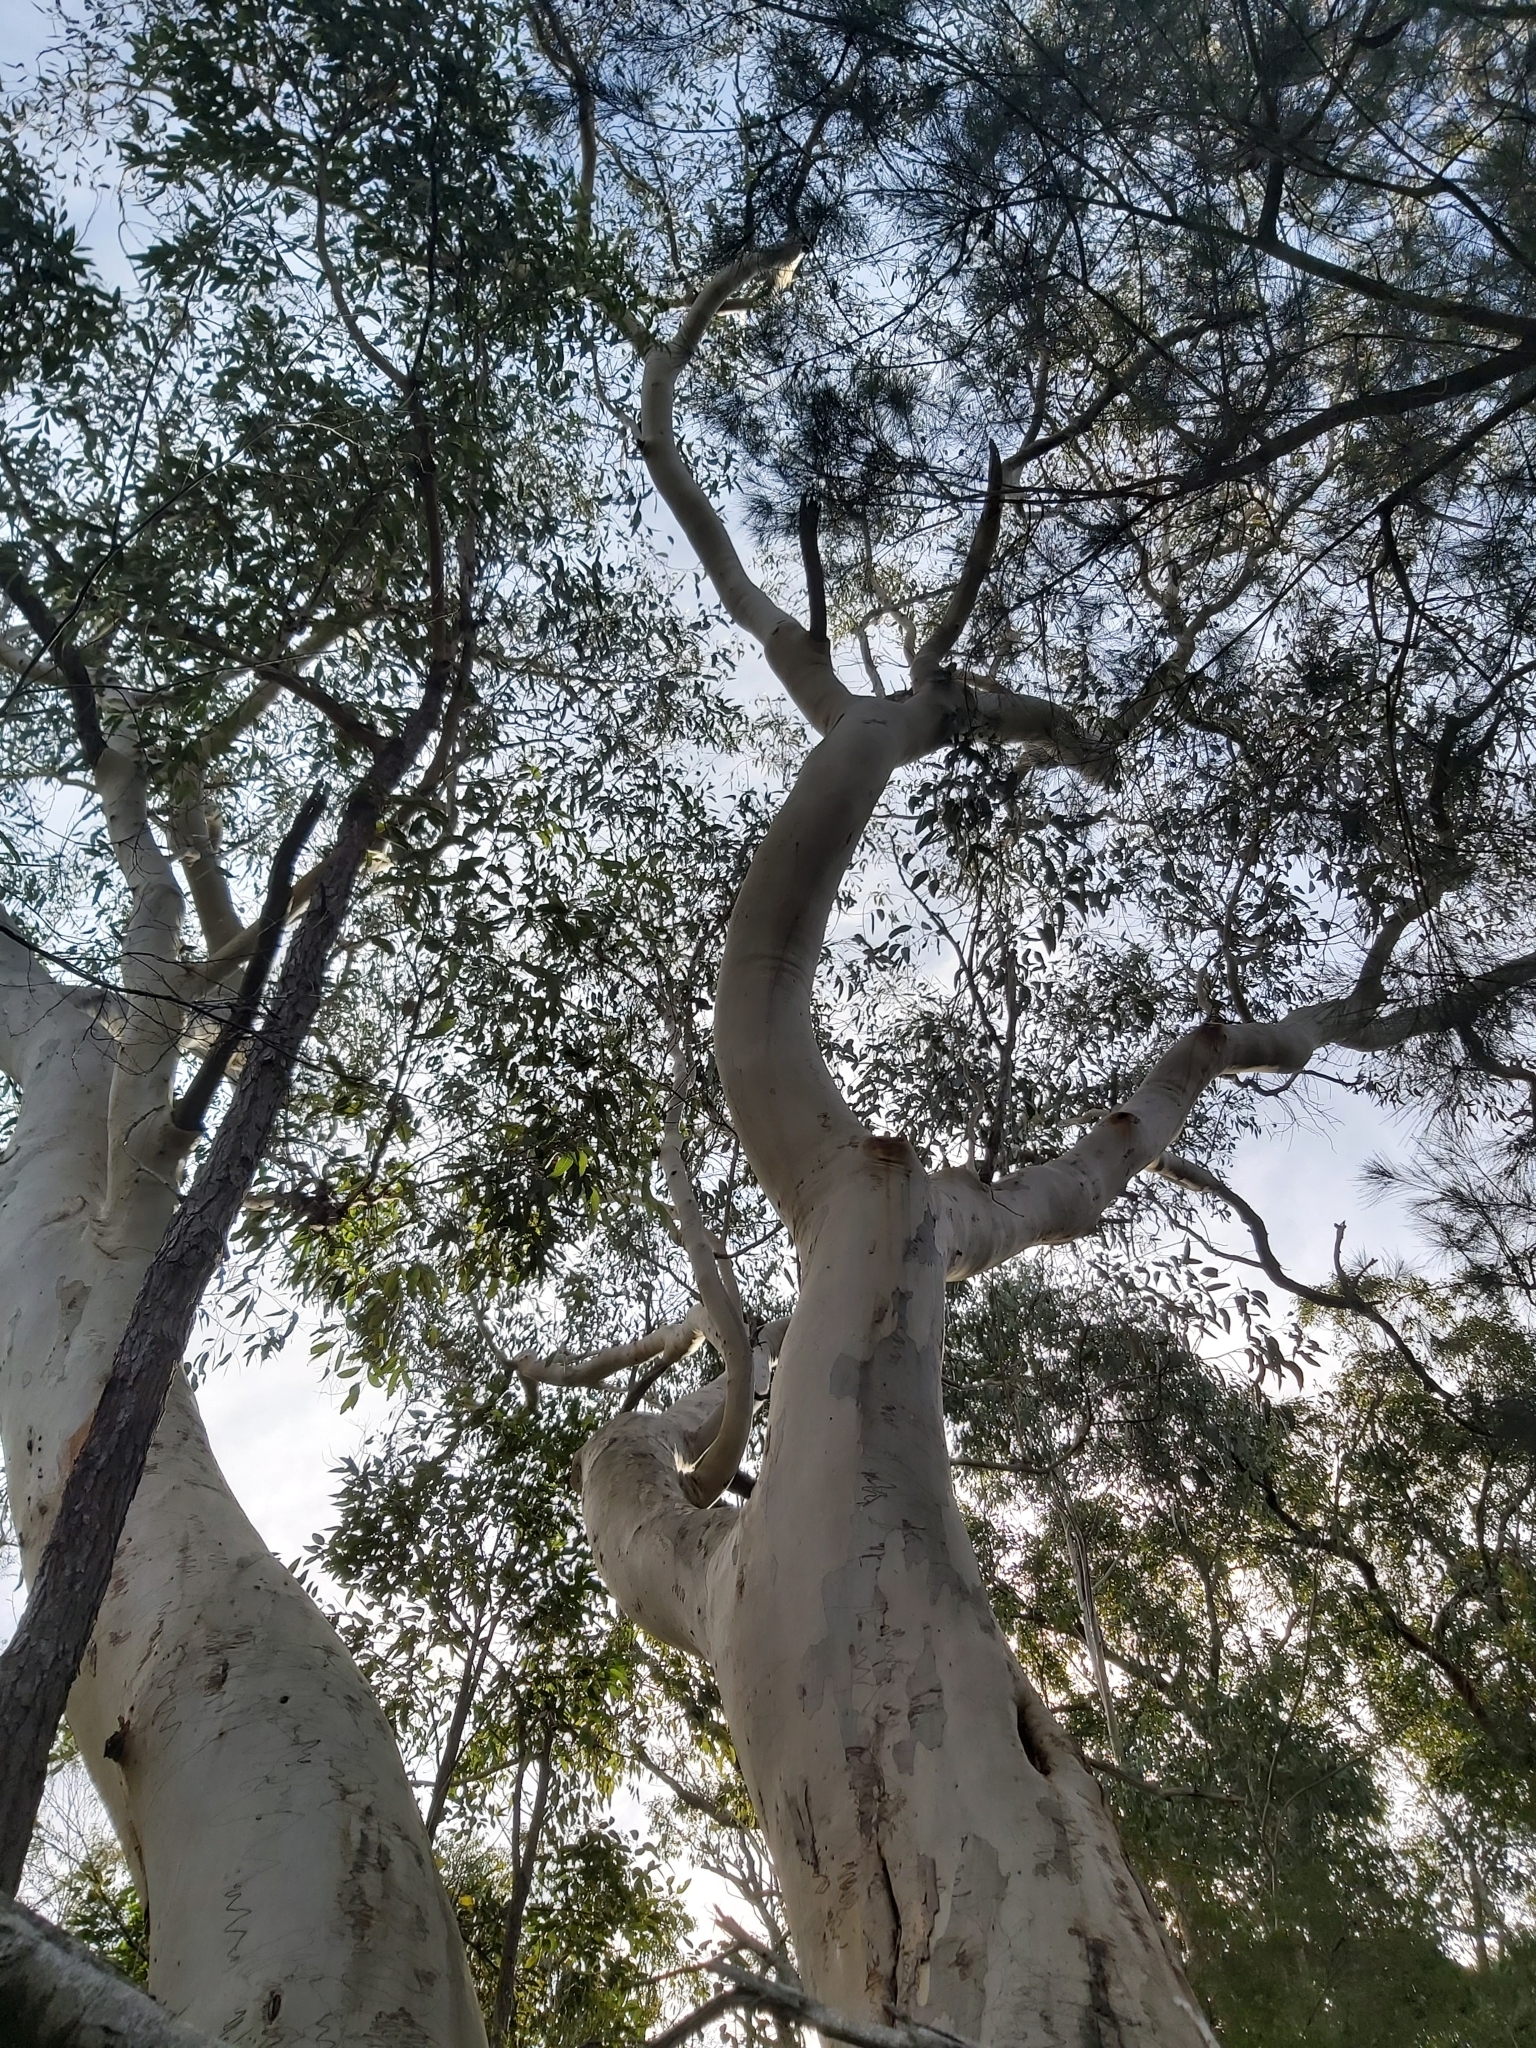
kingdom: Plantae
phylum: Tracheophyta
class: Magnoliopsida
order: Myrtales
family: Myrtaceae
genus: Eucalyptus
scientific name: Eucalyptus haemastoma
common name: Scribbly-gum
